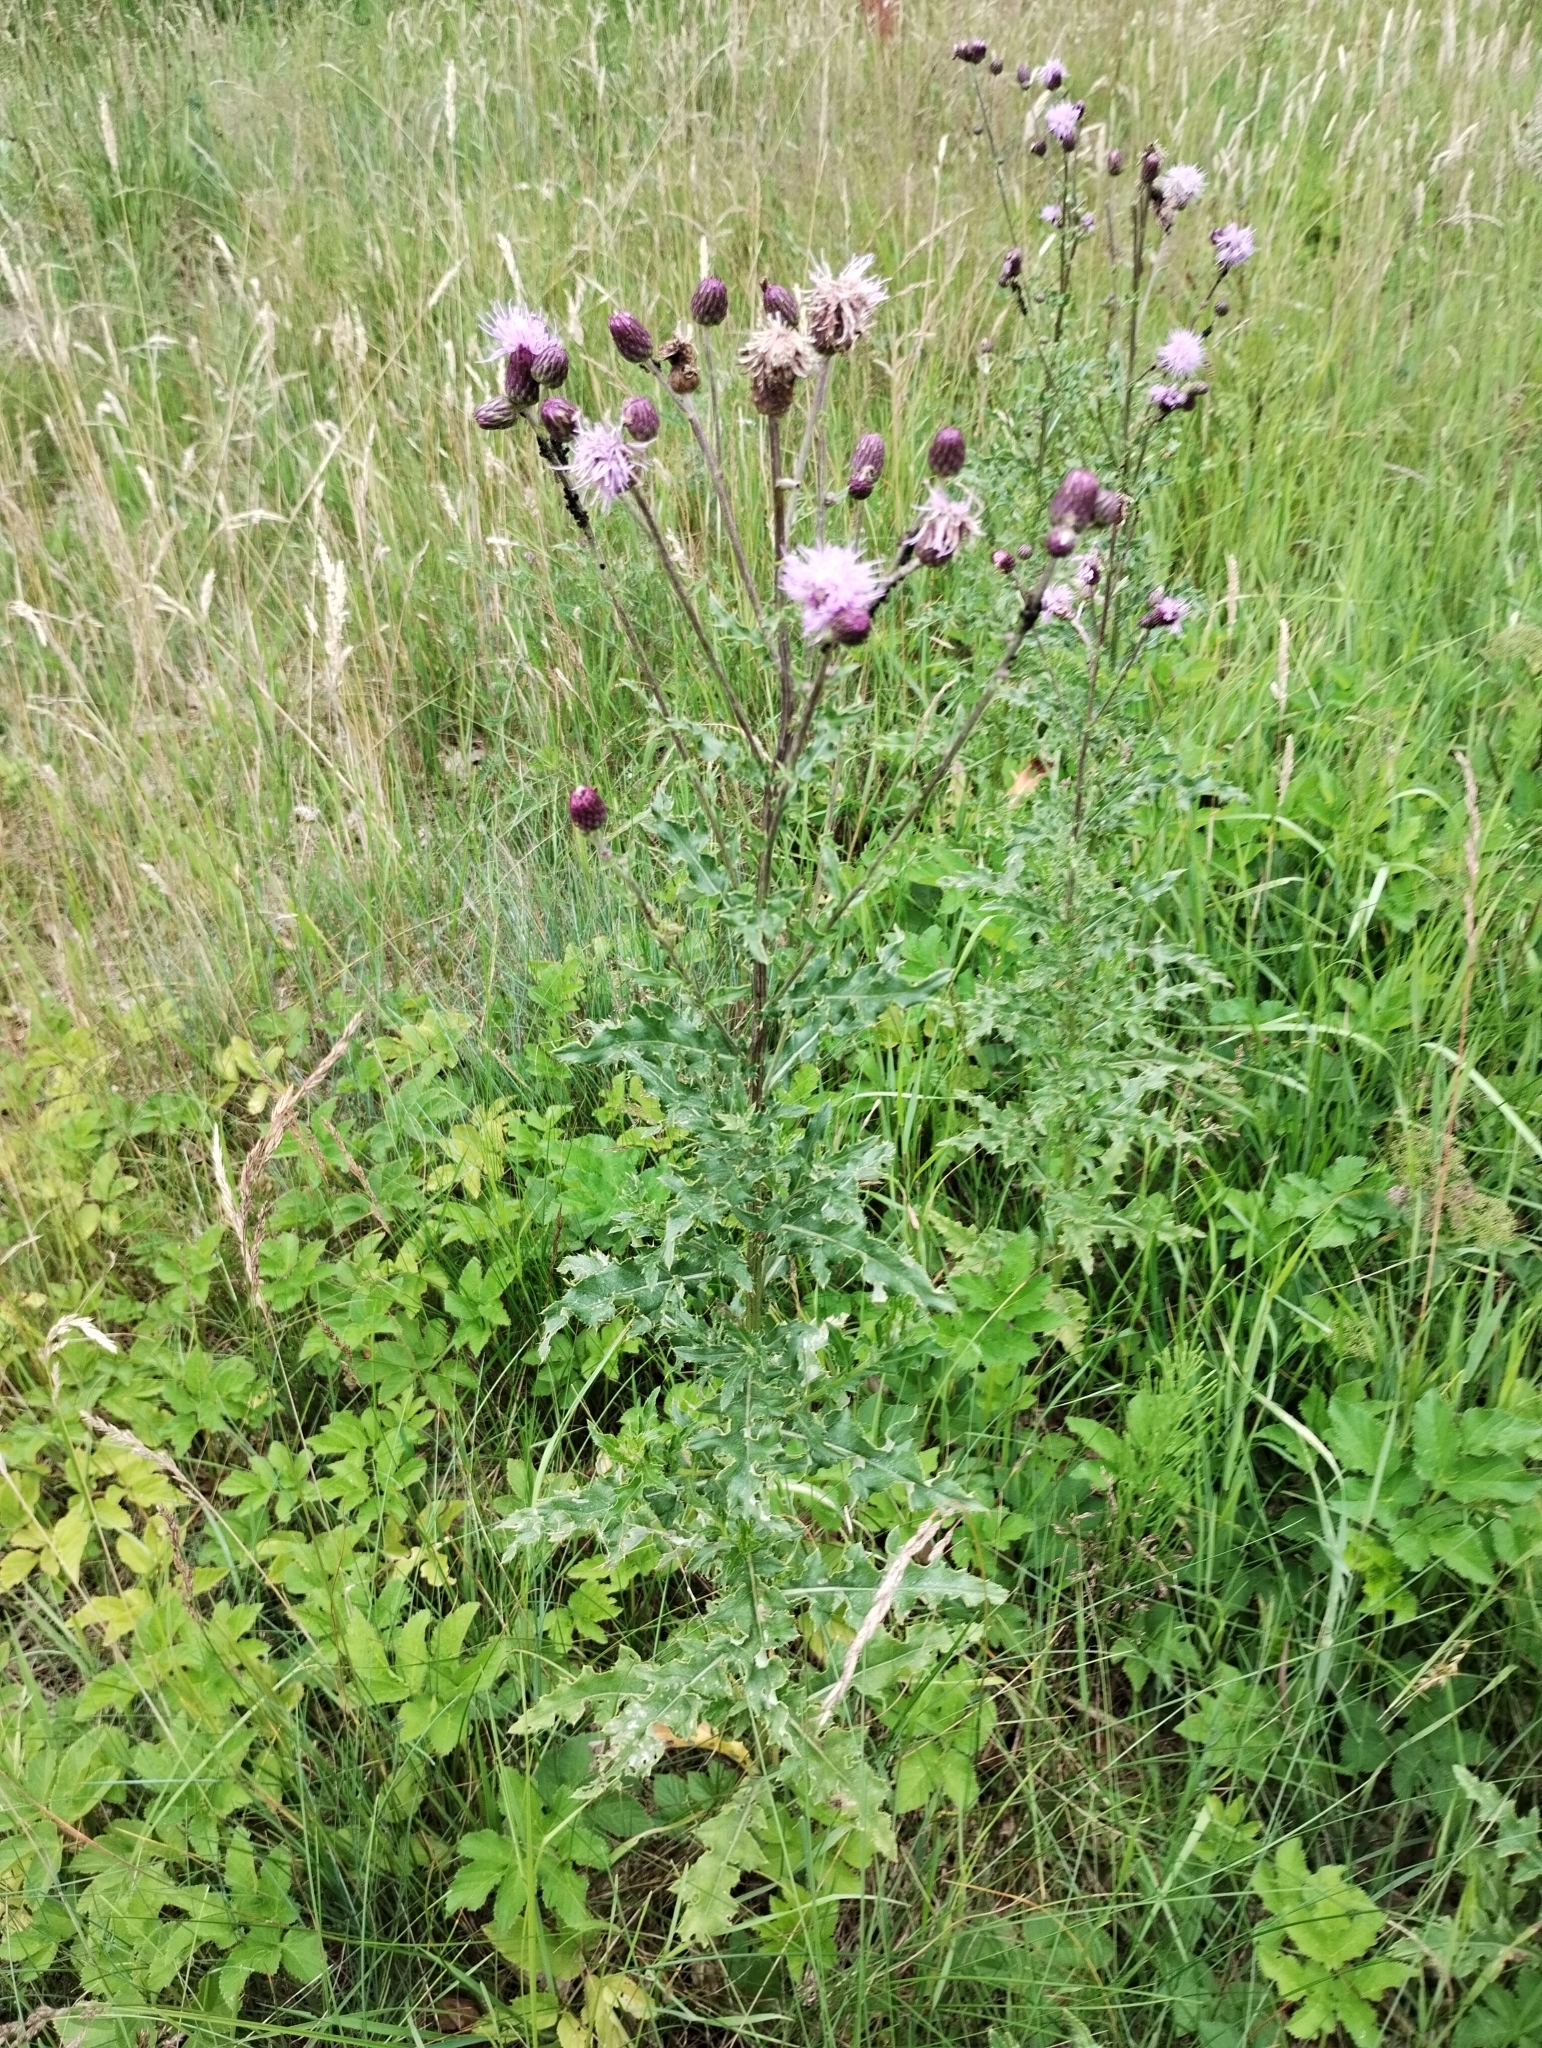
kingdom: Plantae
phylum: Tracheophyta
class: Magnoliopsida
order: Asterales
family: Asteraceae
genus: Cirsium
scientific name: Cirsium arvense
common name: Creeping thistle
